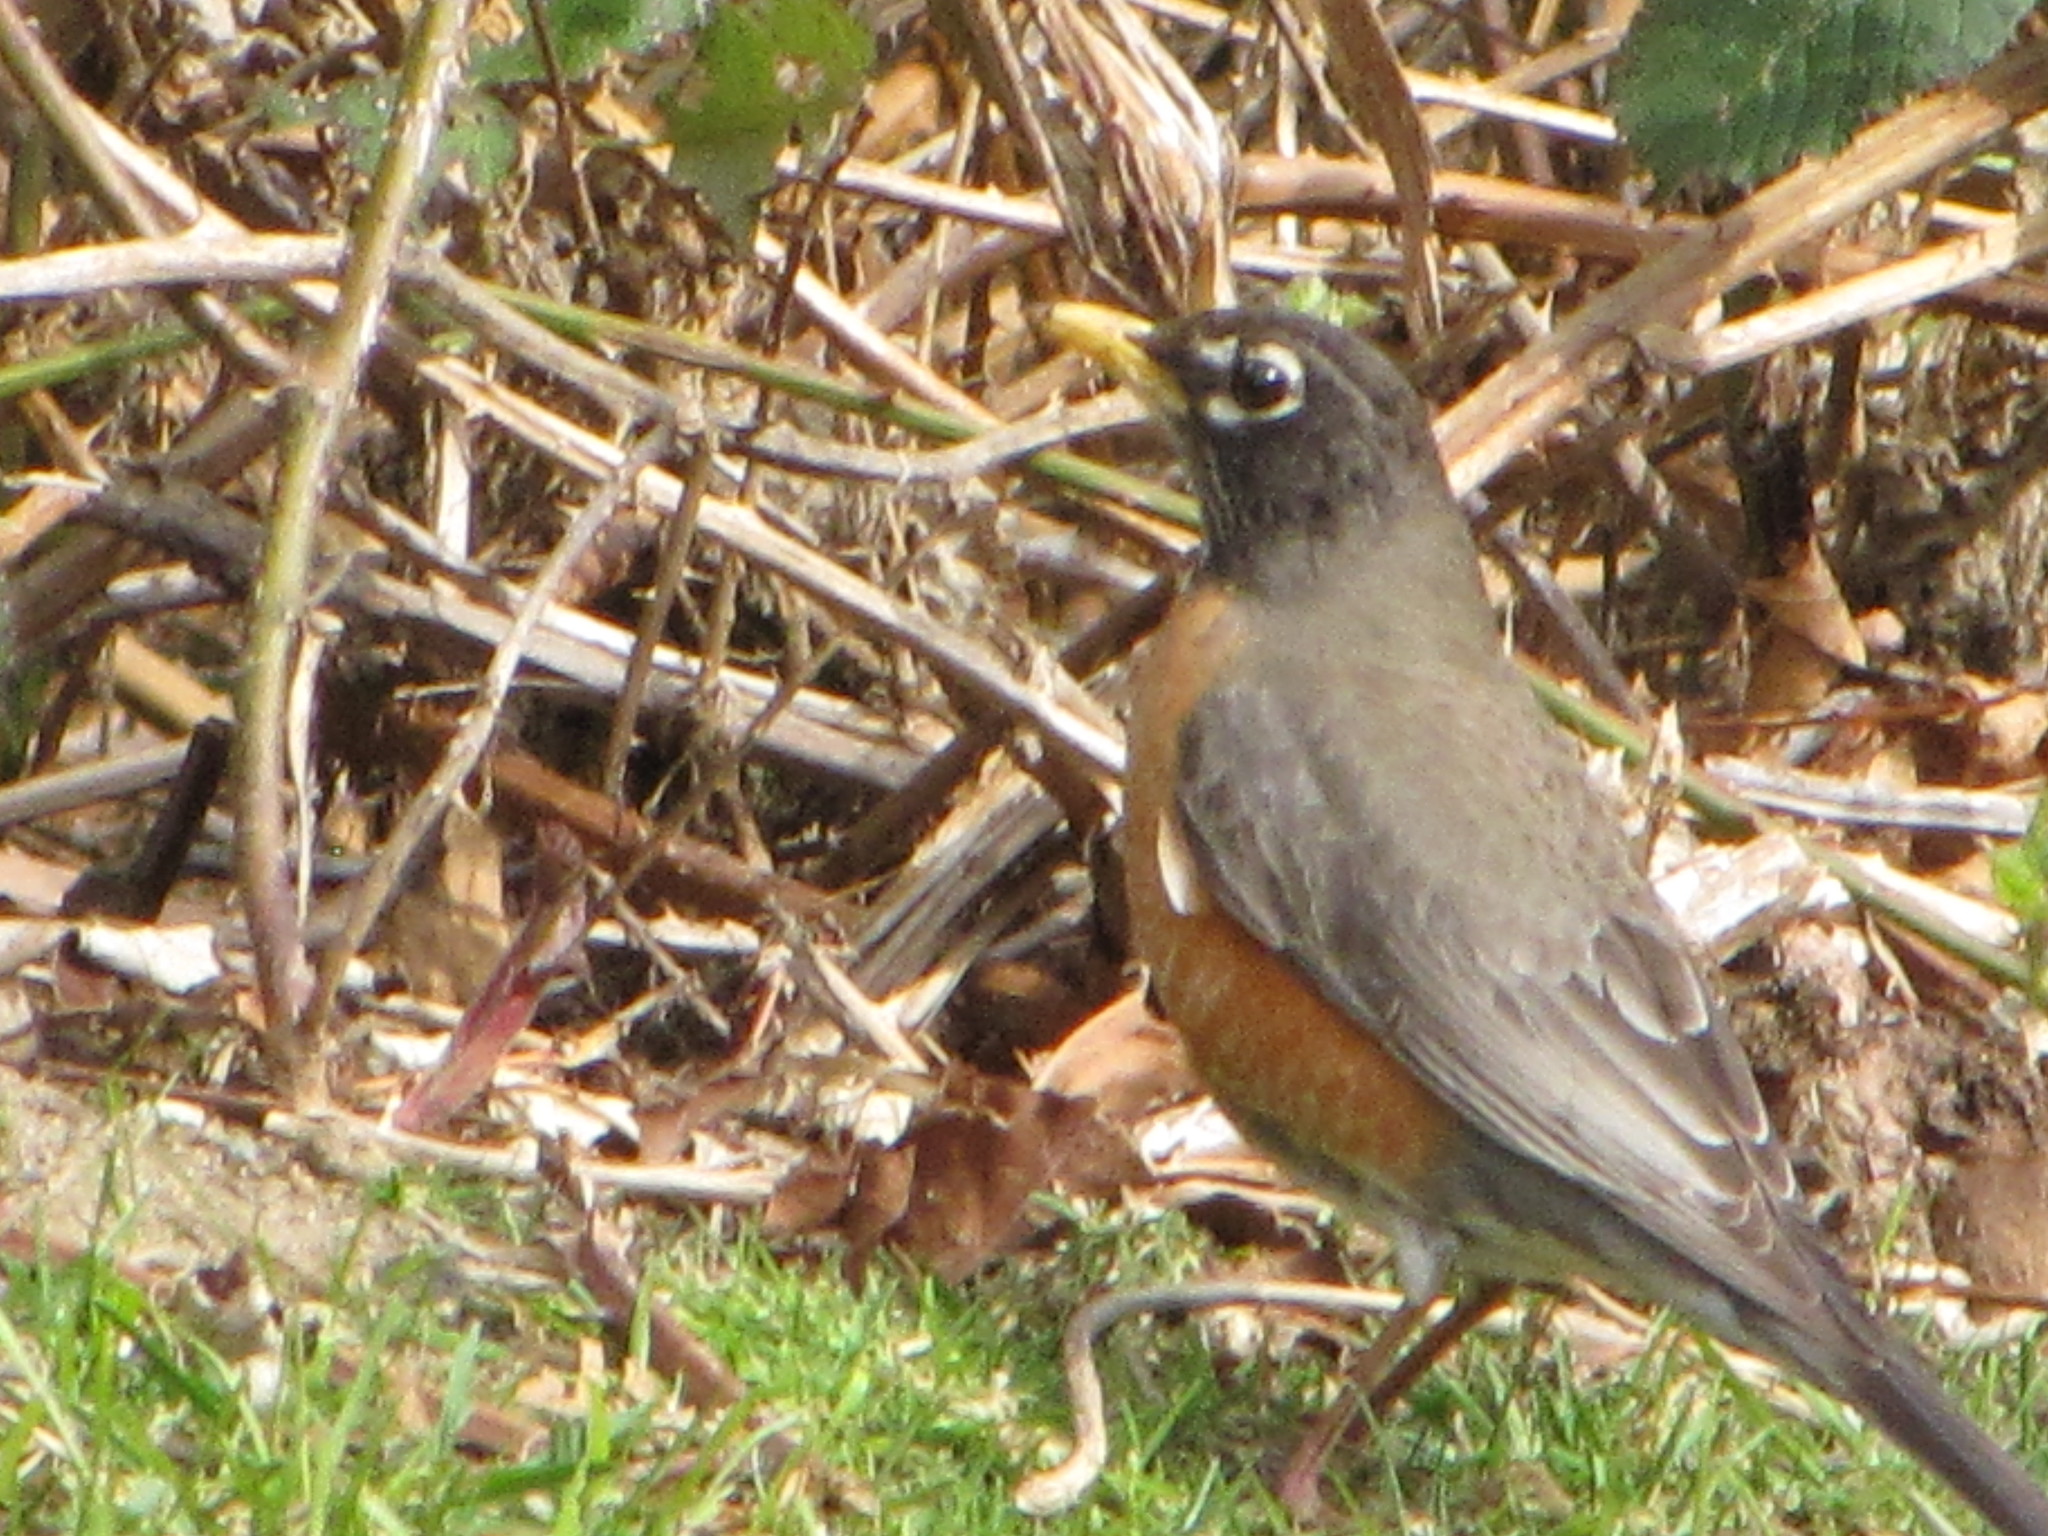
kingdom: Animalia
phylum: Chordata
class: Aves
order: Passeriformes
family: Turdidae
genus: Turdus
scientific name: Turdus migratorius
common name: American robin
